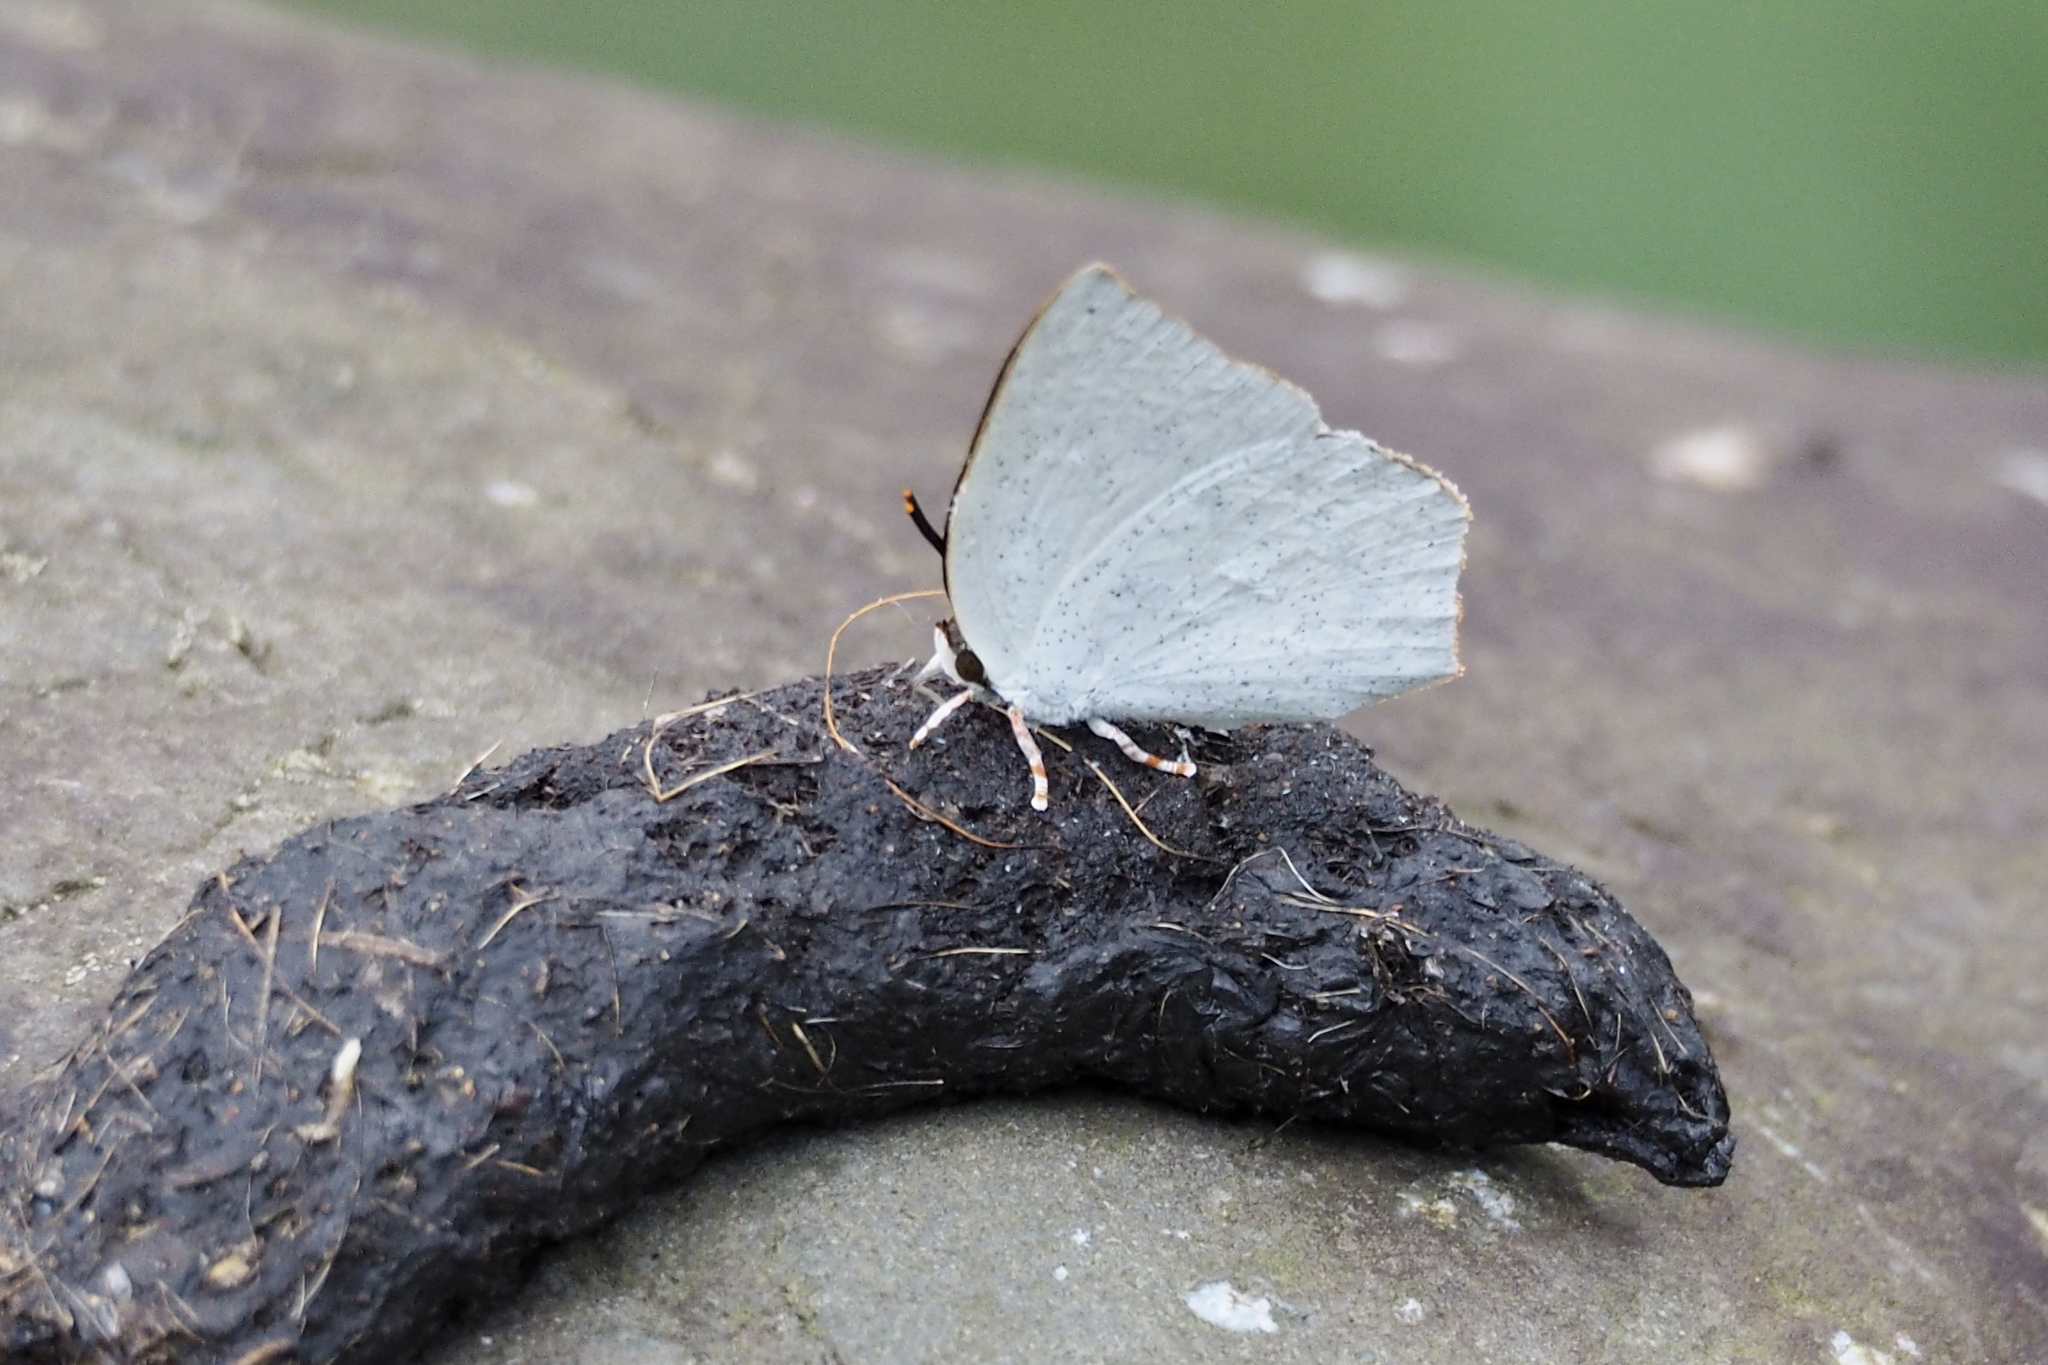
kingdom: Animalia
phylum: Arthropoda
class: Insecta
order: Lepidoptera
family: Lycaenidae
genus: Curetis
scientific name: Curetis acuta
